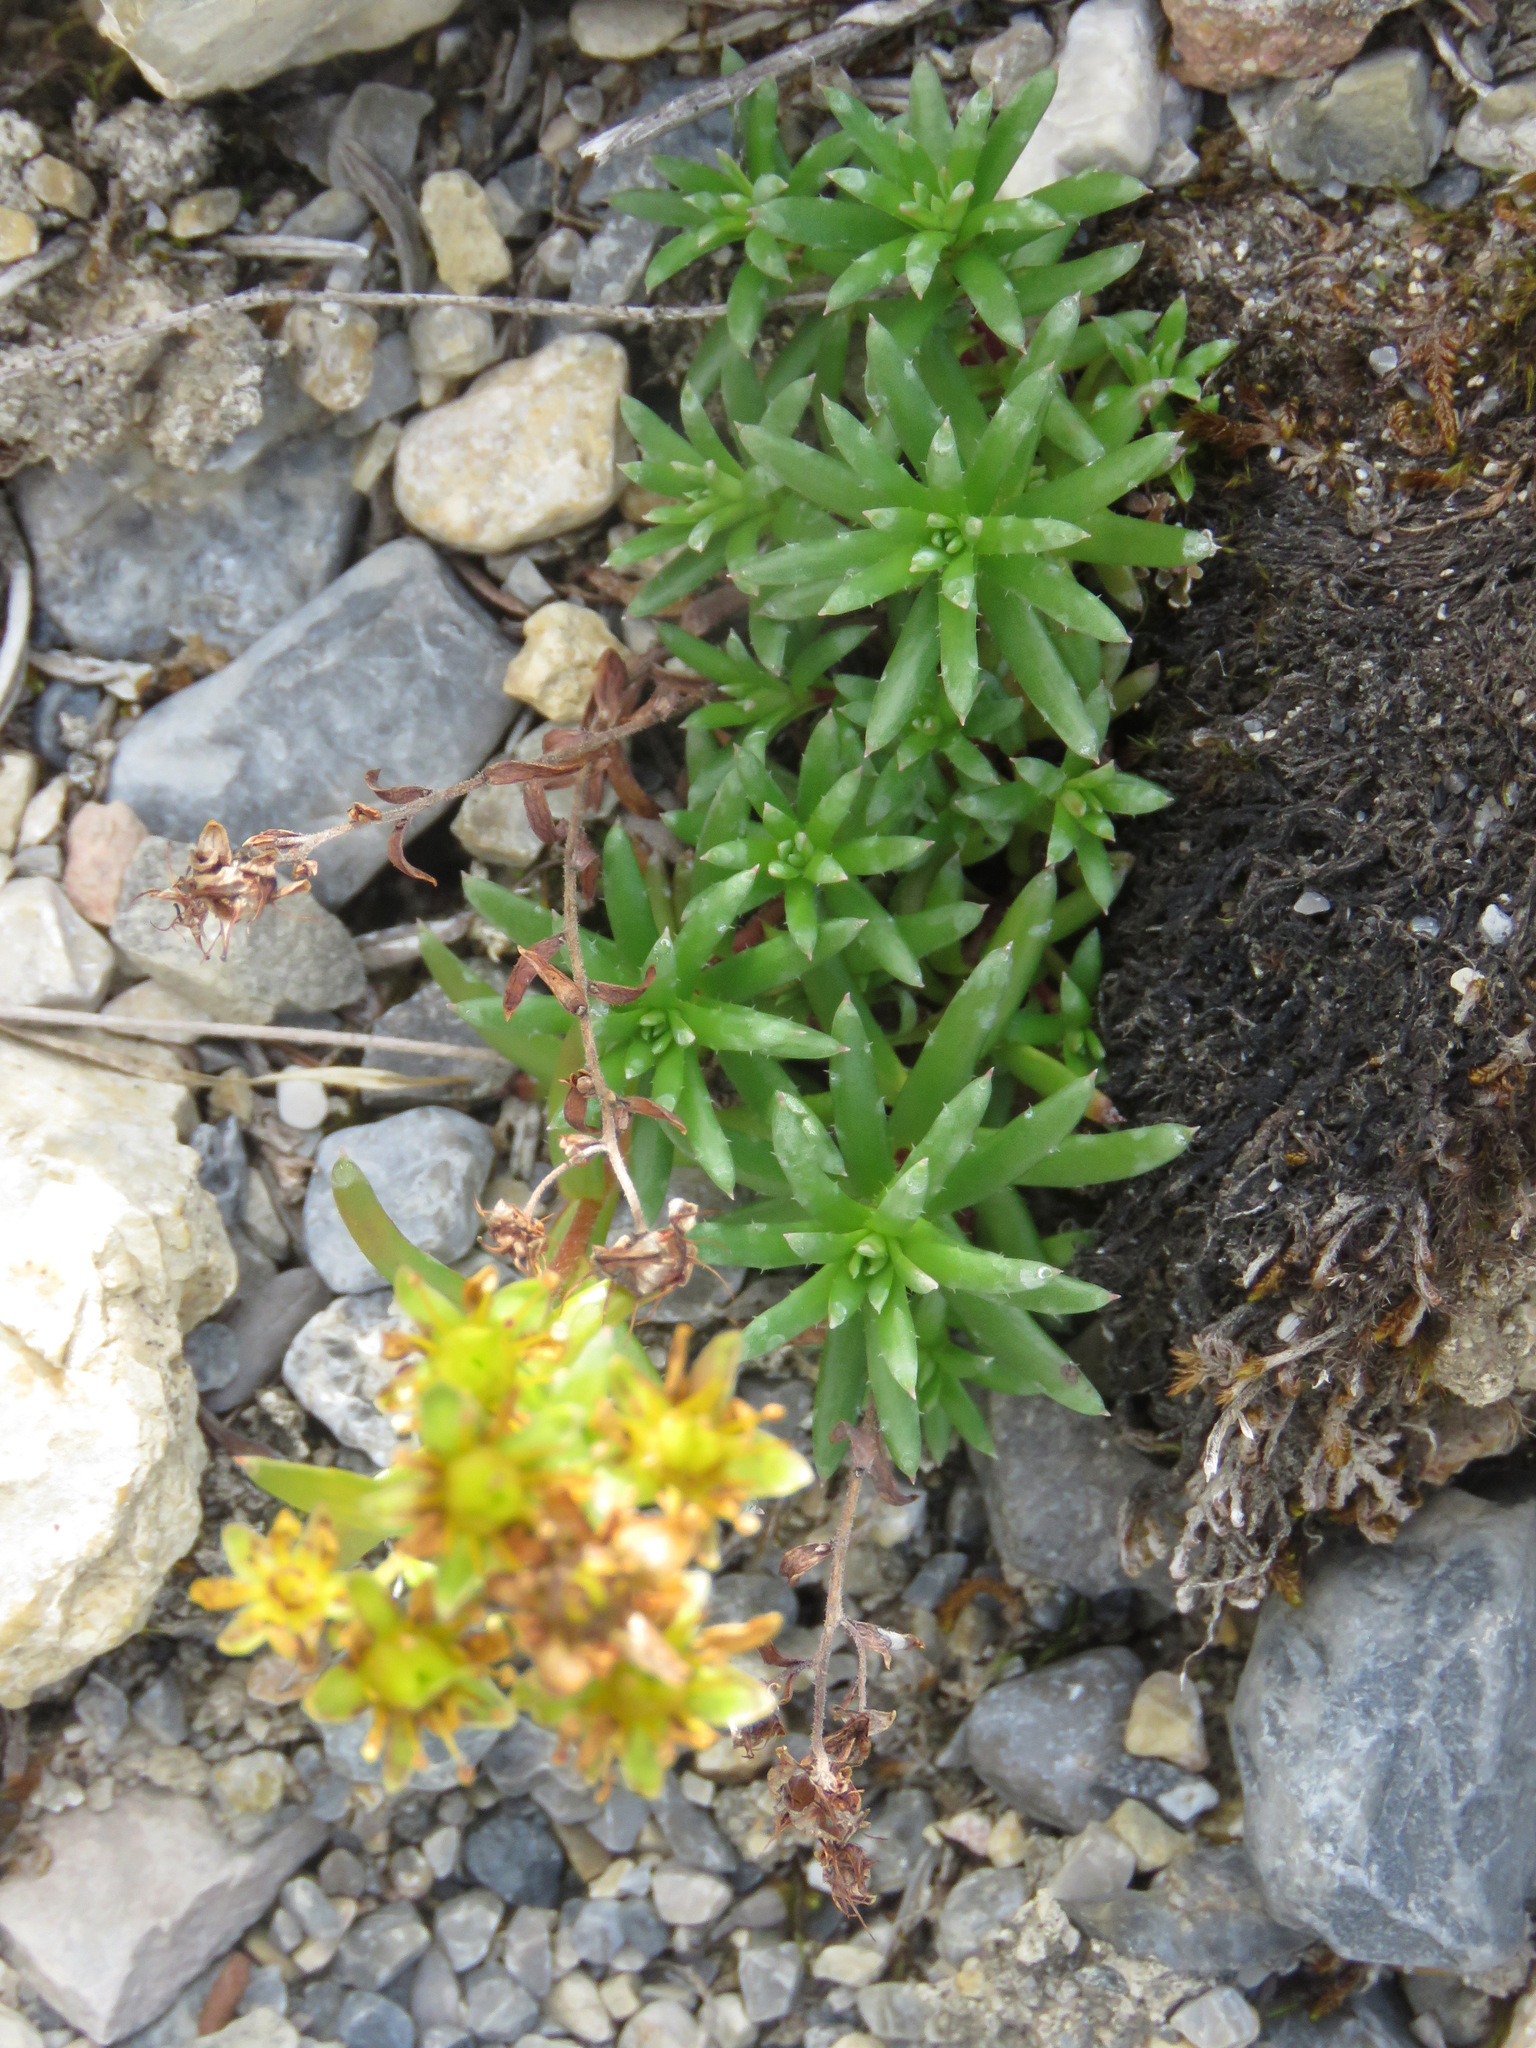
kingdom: Plantae
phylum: Tracheophyta
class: Magnoliopsida
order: Saxifragales
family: Saxifragaceae
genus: Saxifraga
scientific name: Saxifraga aizoides
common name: Yellow mountain saxifrage
